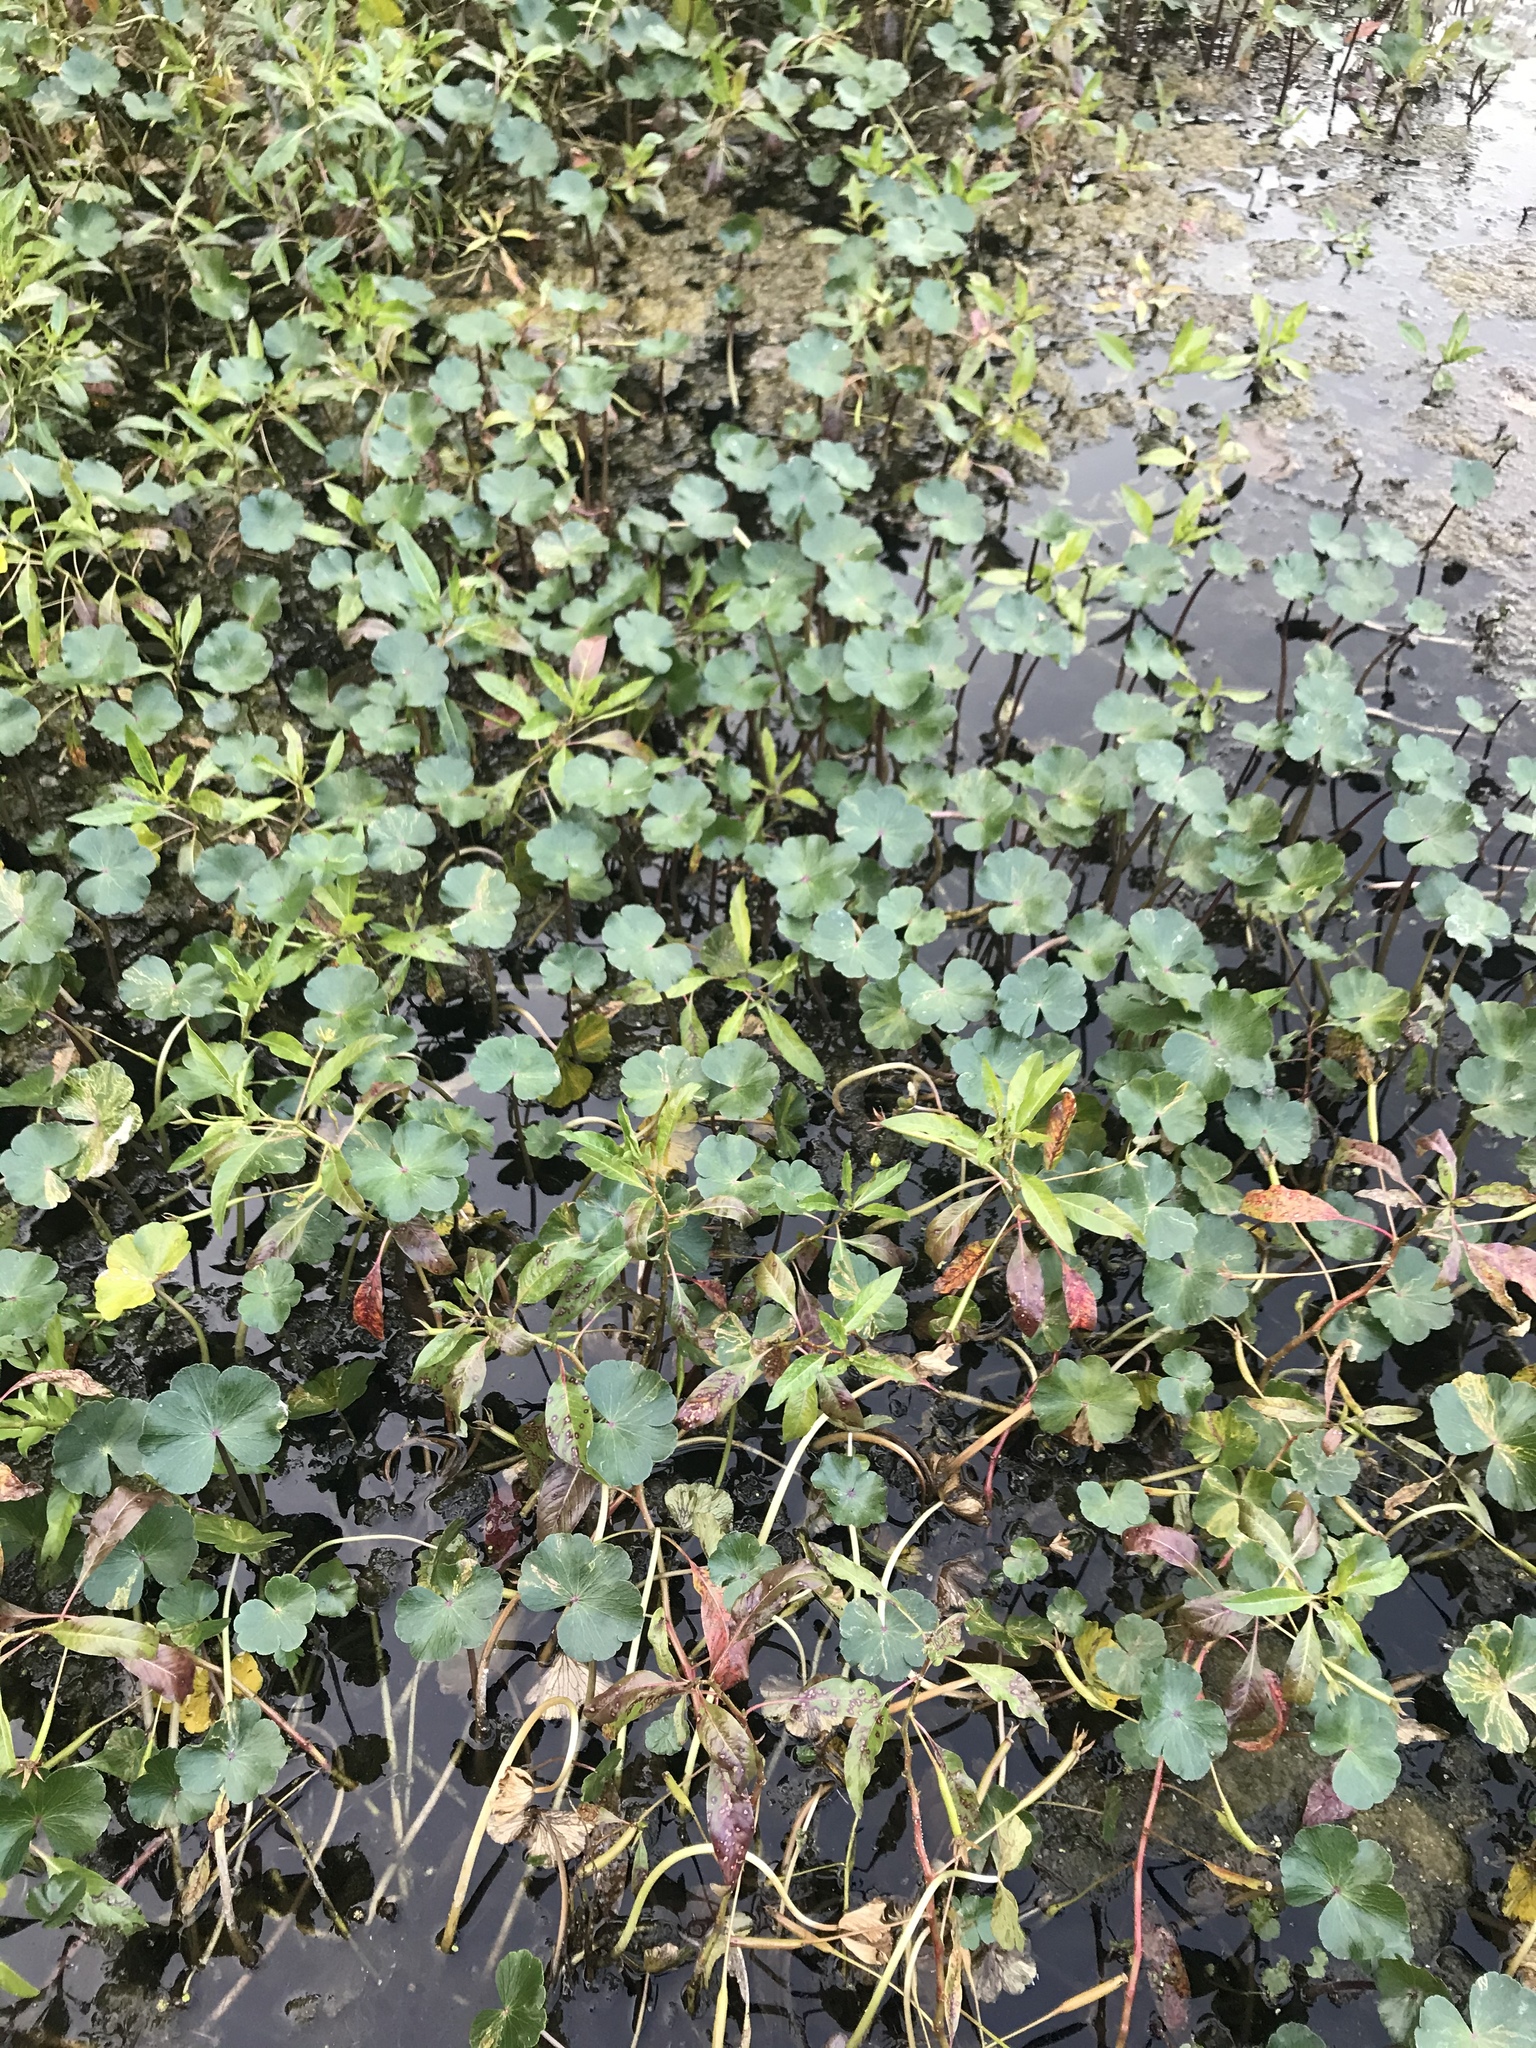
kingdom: Plantae
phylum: Tracheophyta
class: Magnoliopsida
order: Apiales
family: Araliaceae
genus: Hydrocotyle
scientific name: Hydrocotyle ranunculoides
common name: Floating pennywort
